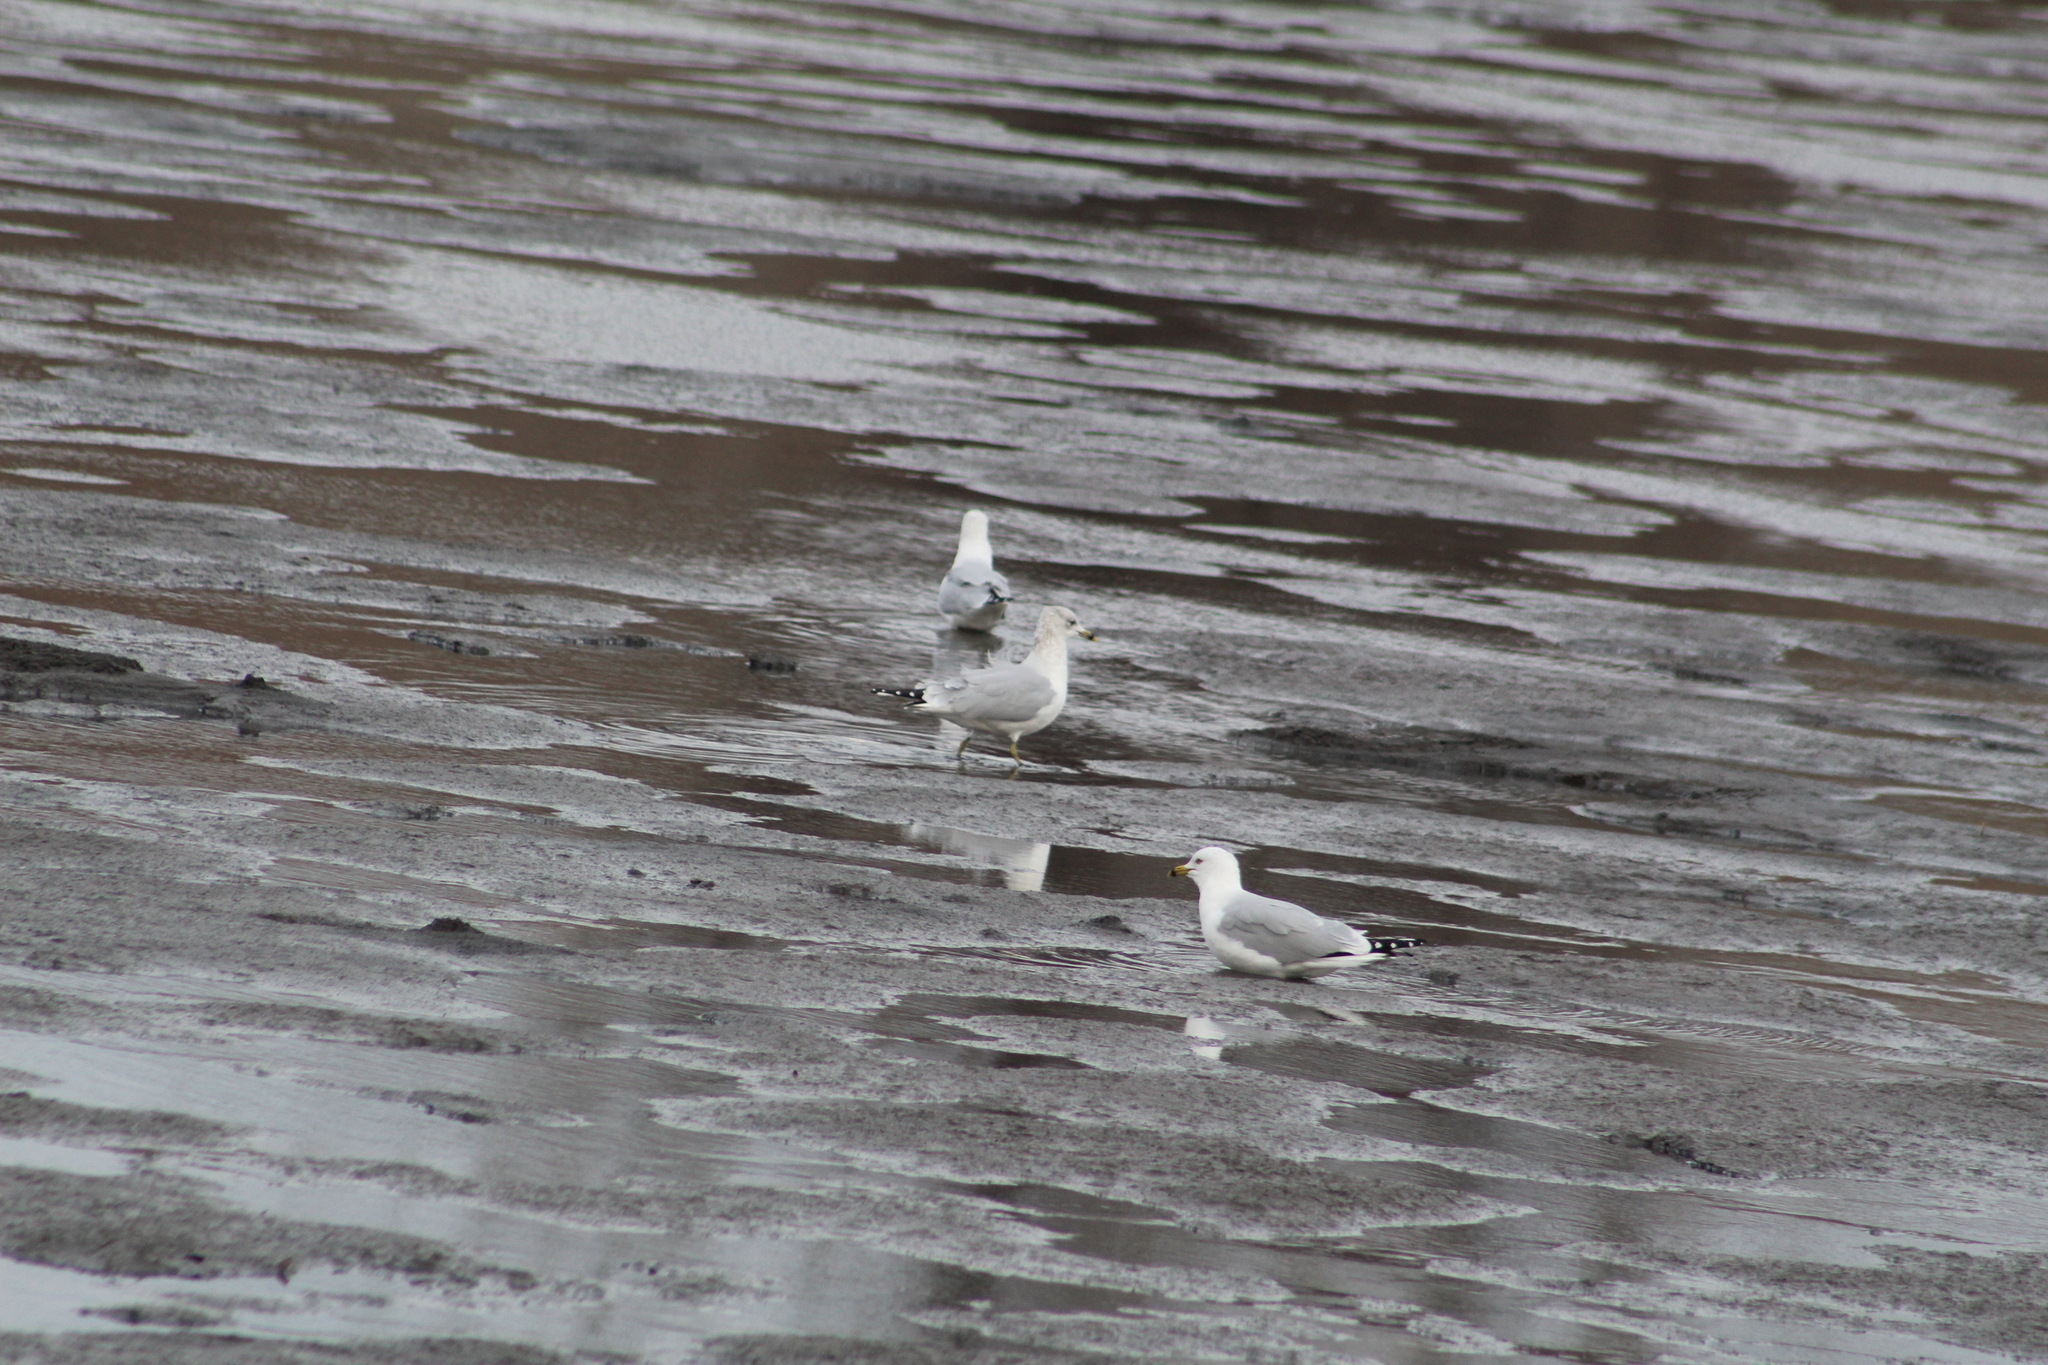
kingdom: Animalia
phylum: Chordata
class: Aves
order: Charadriiformes
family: Laridae
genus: Larus
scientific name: Larus delawarensis
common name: Ring-billed gull
